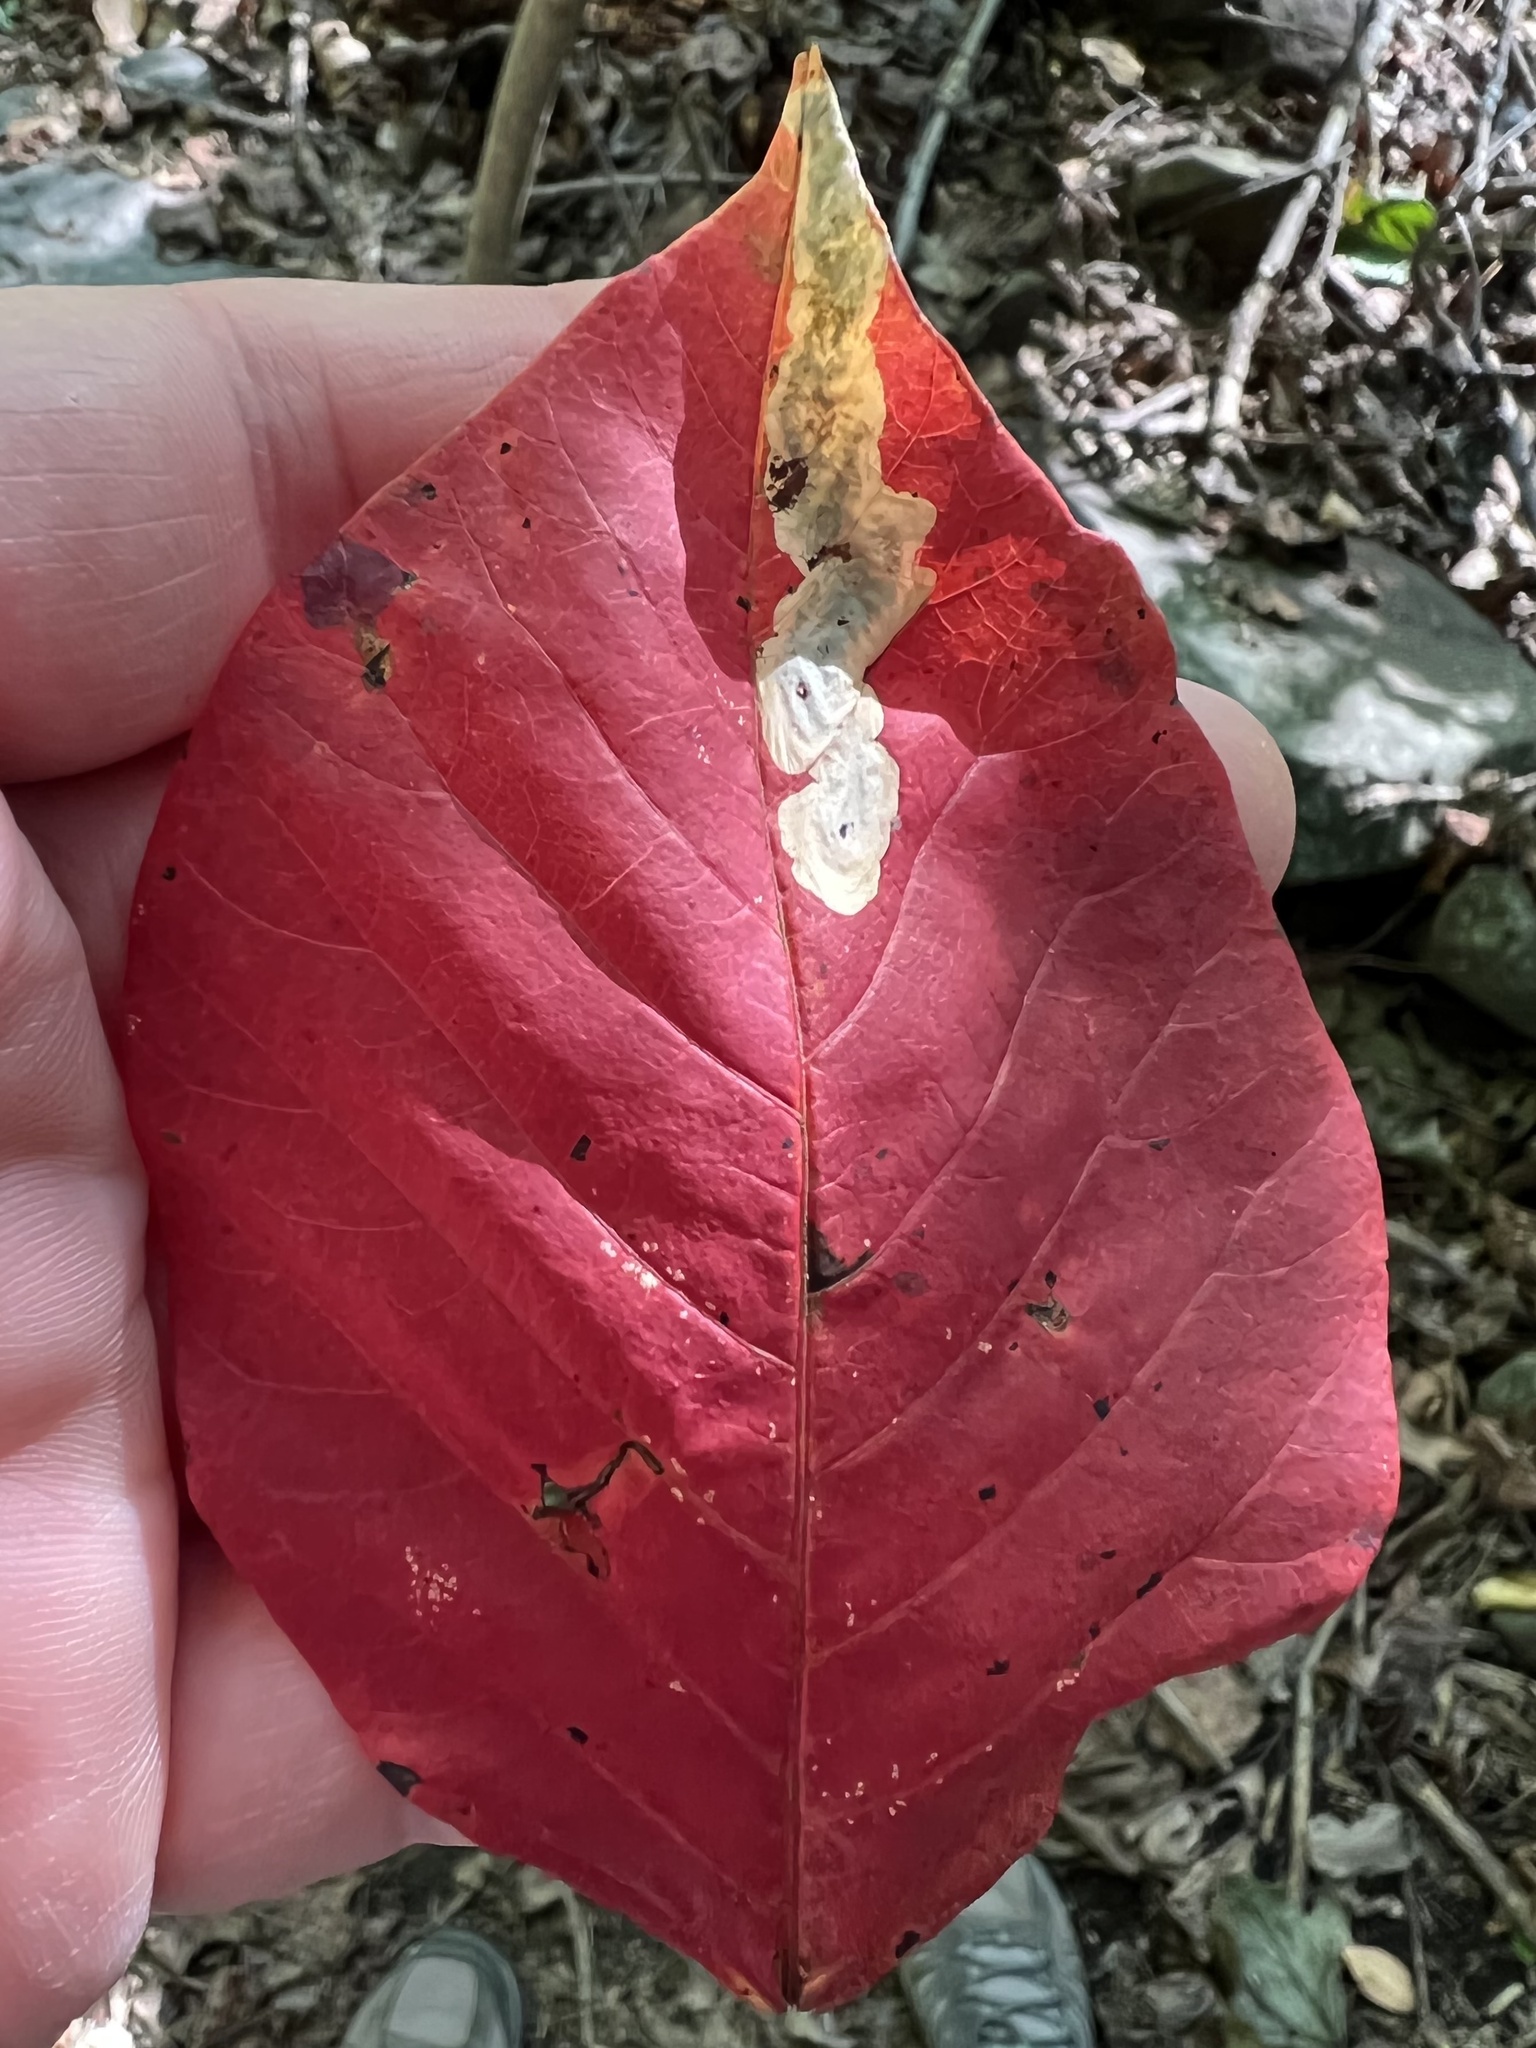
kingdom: Animalia
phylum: Arthropoda
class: Insecta
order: Lepidoptera
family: Gracillariidae
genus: Cameraria
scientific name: Cameraria guttifinitella
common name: Poison ivy leaf-miner moth
